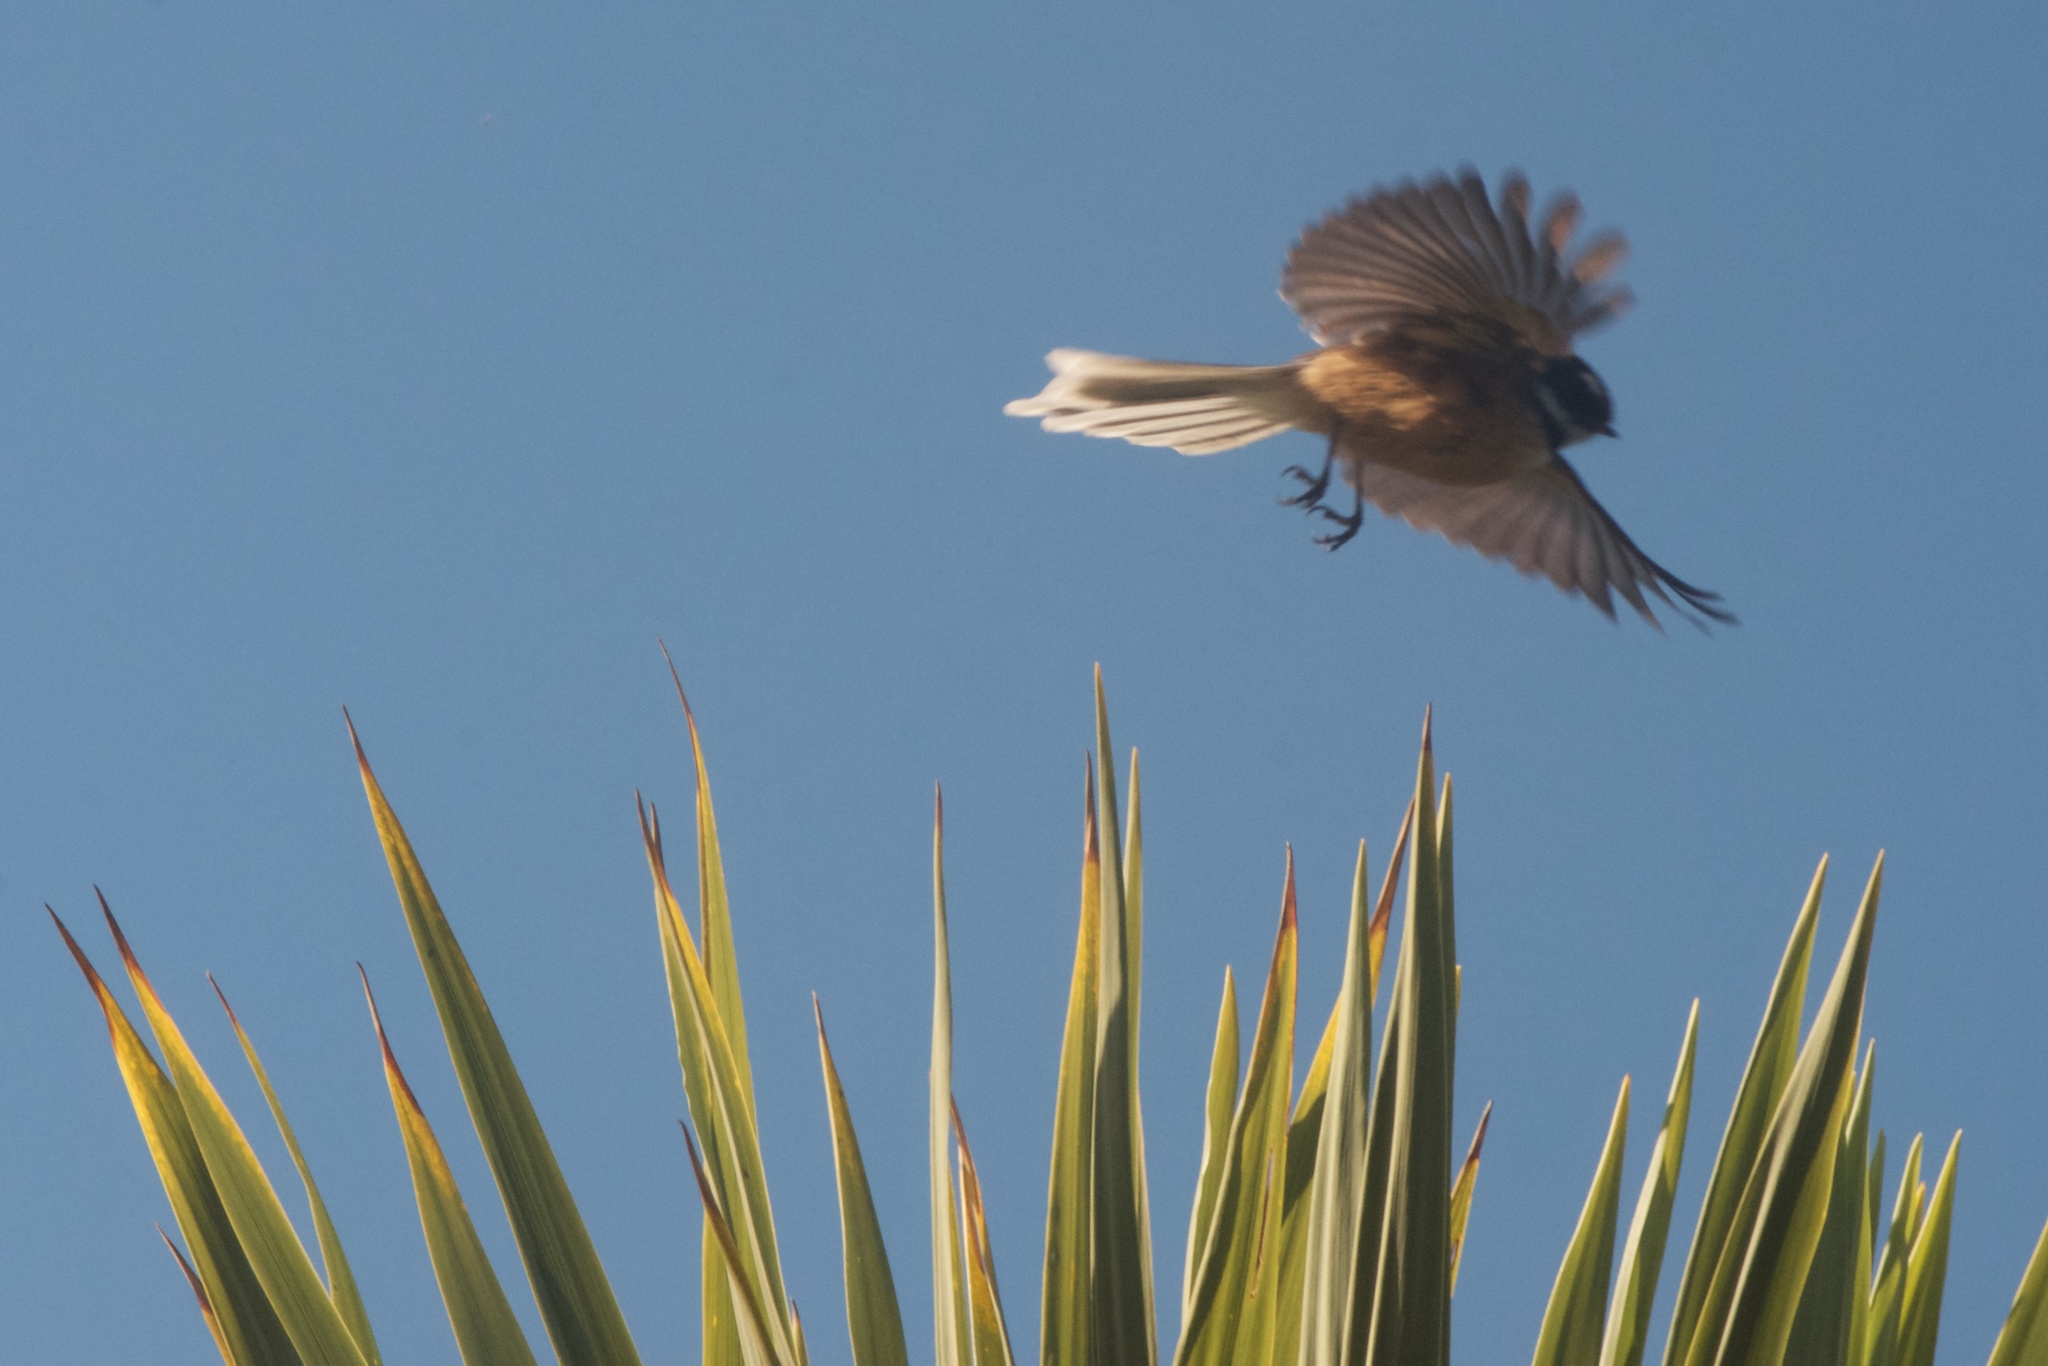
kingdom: Animalia
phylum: Chordata
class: Aves
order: Passeriformes
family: Rhipiduridae
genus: Rhipidura
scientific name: Rhipidura fuliginosa
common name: New zealand fantail
